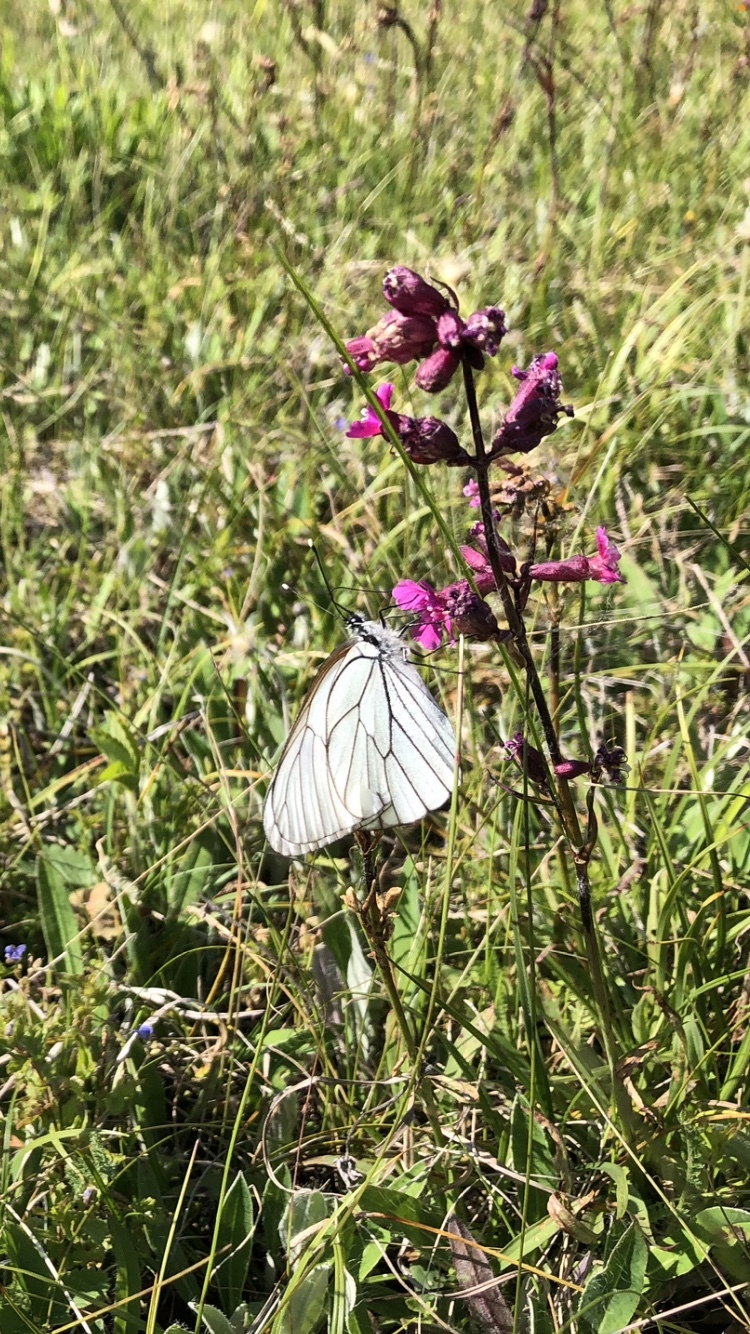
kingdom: Animalia
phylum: Arthropoda
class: Insecta
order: Lepidoptera
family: Pieridae
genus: Aporia
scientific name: Aporia crataegi
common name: Black-veined white
